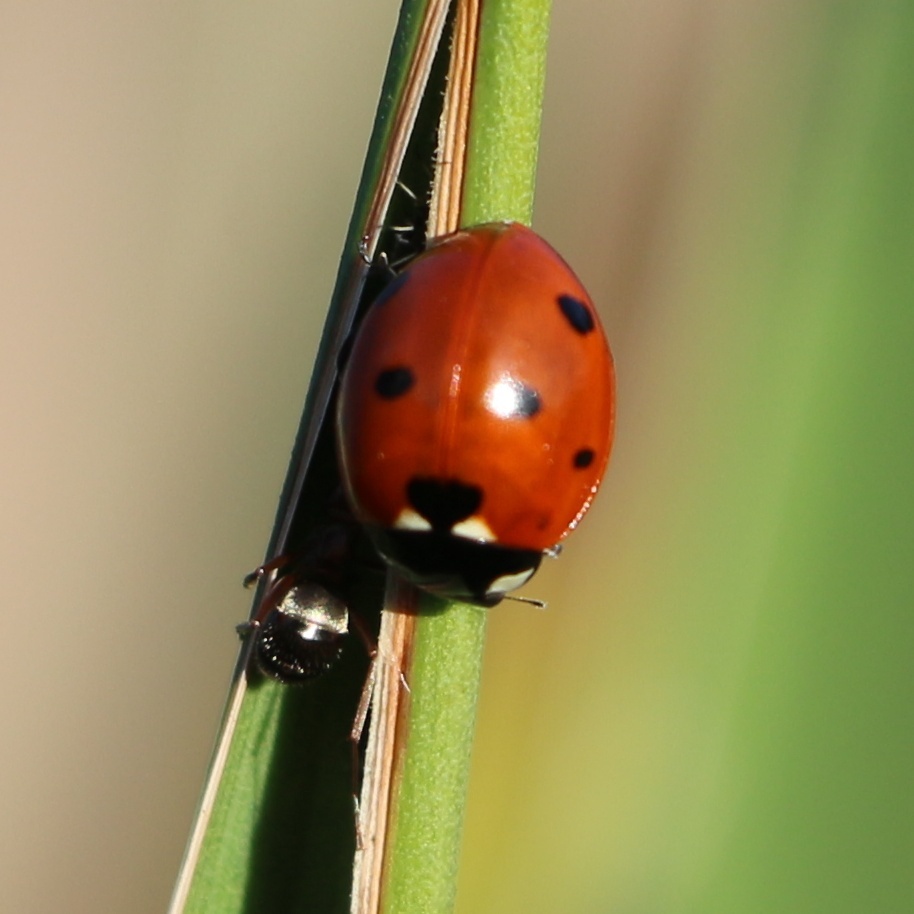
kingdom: Animalia
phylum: Arthropoda
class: Insecta
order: Coleoptera
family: Coccinellidae
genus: Coccinella
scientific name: Coccinella septempunctata
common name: Sevenspotted lady beetle
